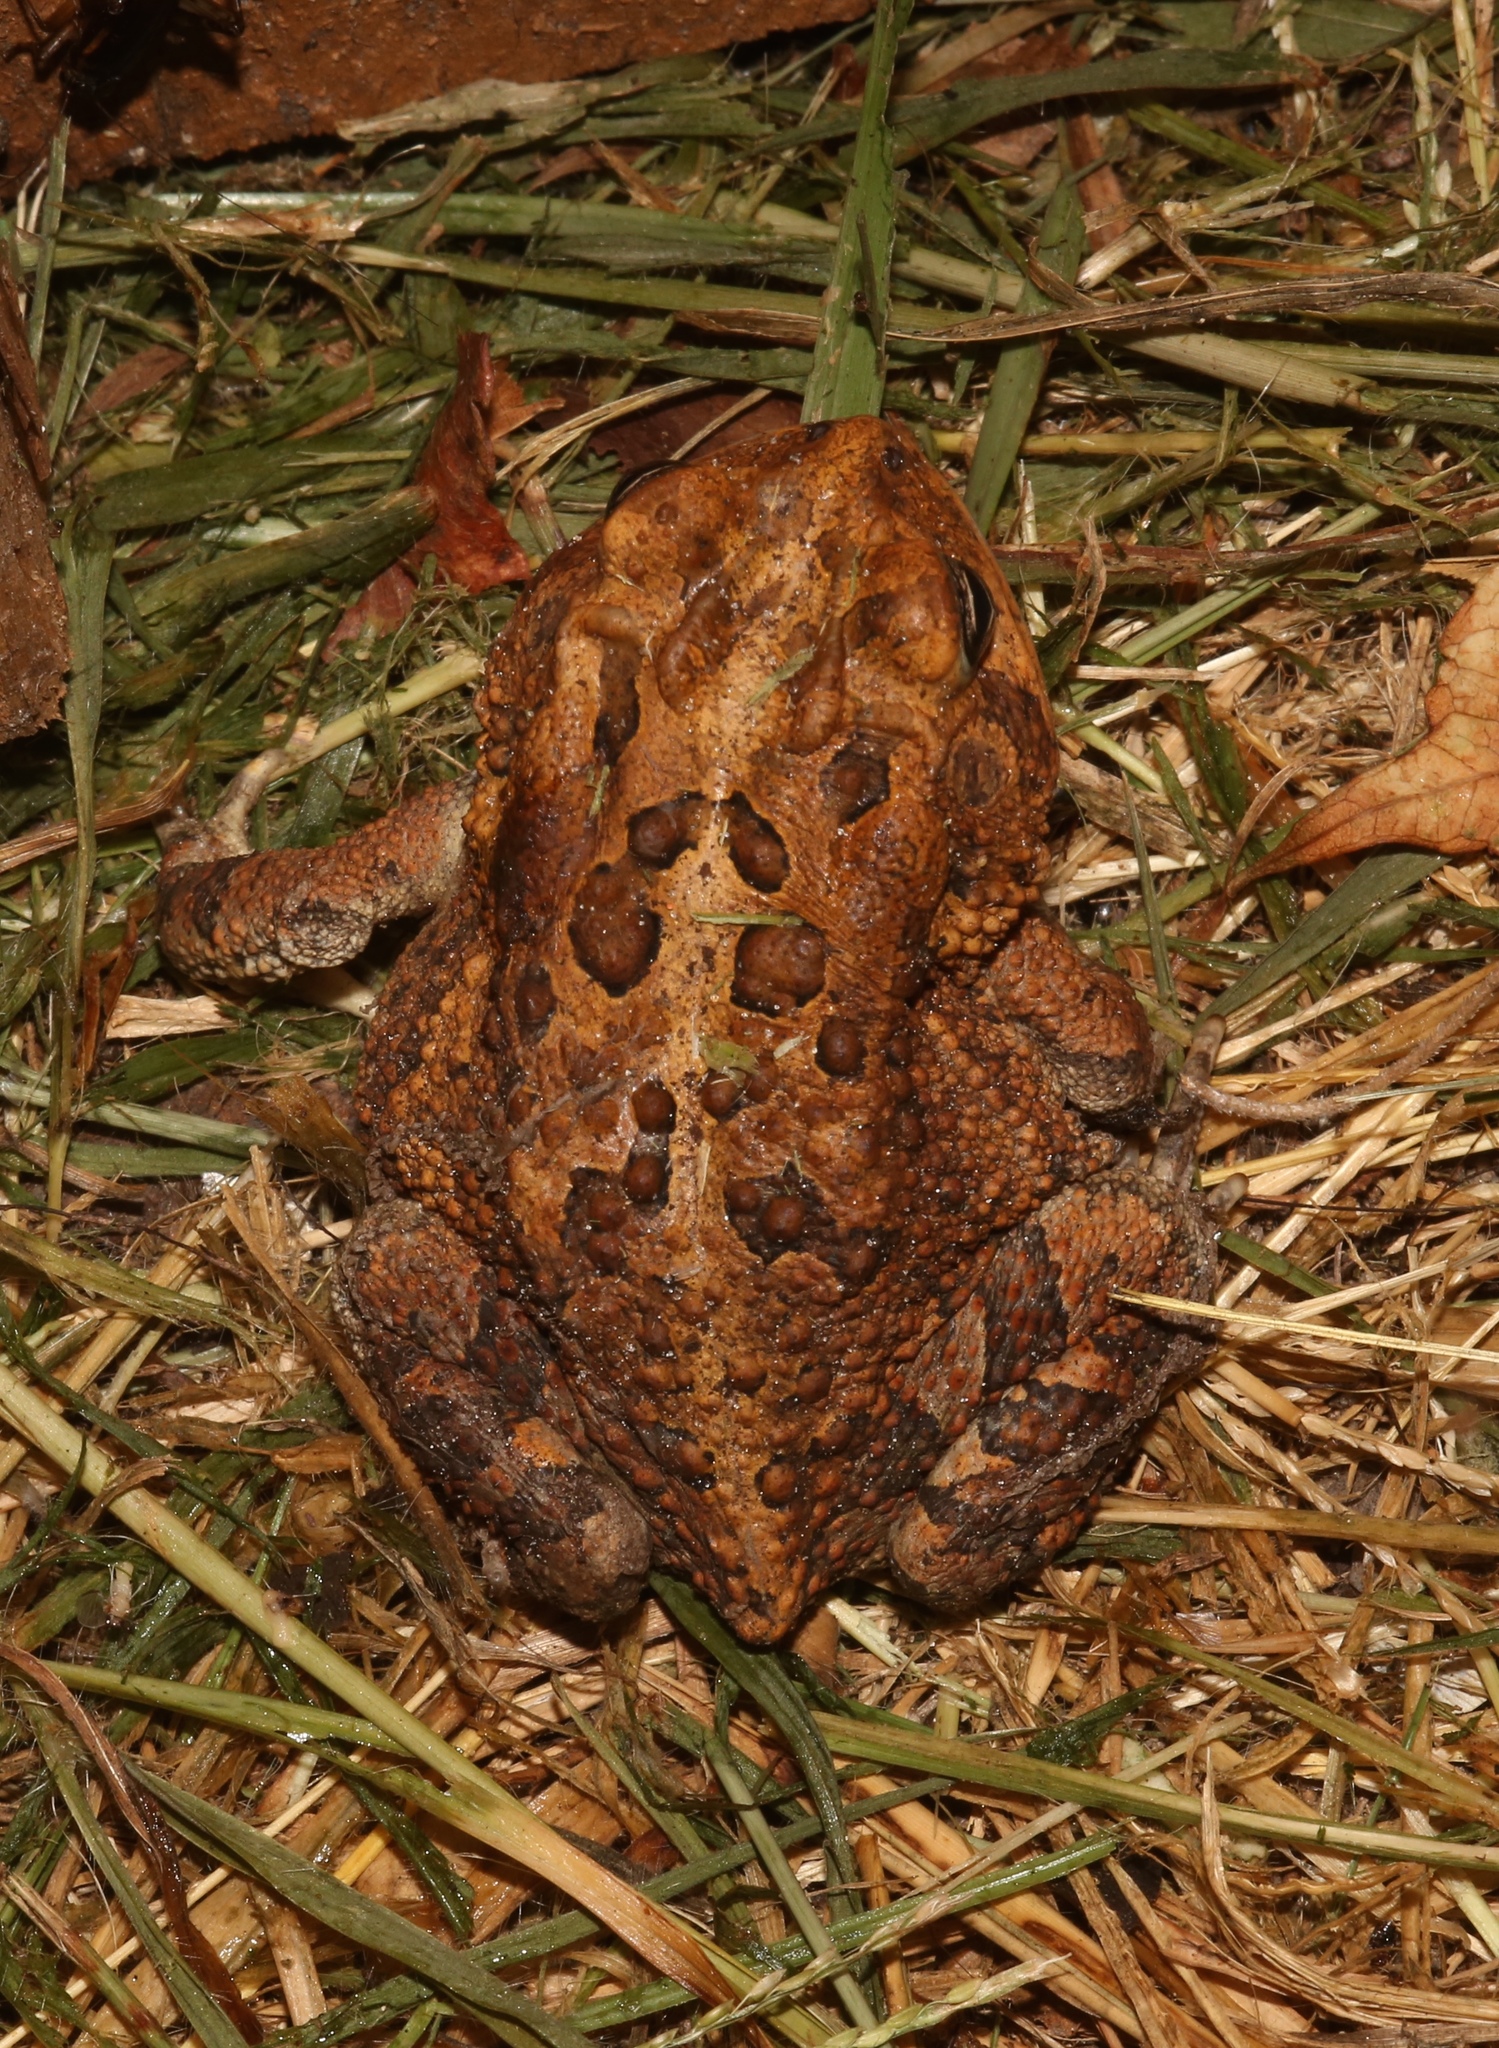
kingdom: Animalia
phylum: Chordata
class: Amphibia
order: Anura
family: Bufonidae
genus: Anaxyrus
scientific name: Anaxyrus terrestris
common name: Southern toad
